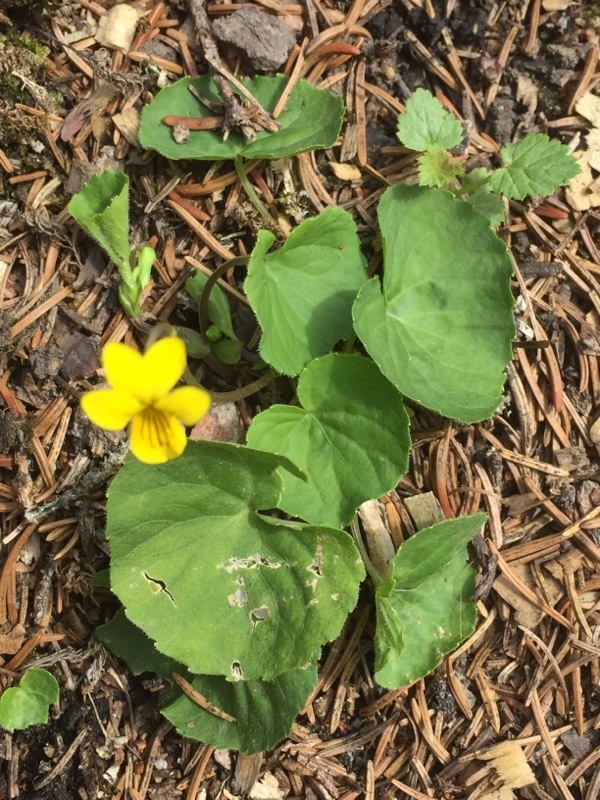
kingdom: Plantae
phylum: Tracheophyta
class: Magnoliopsida
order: Malpighiales
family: Violaceae
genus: Viola
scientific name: Viola biflora
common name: Alpine yellow violet
